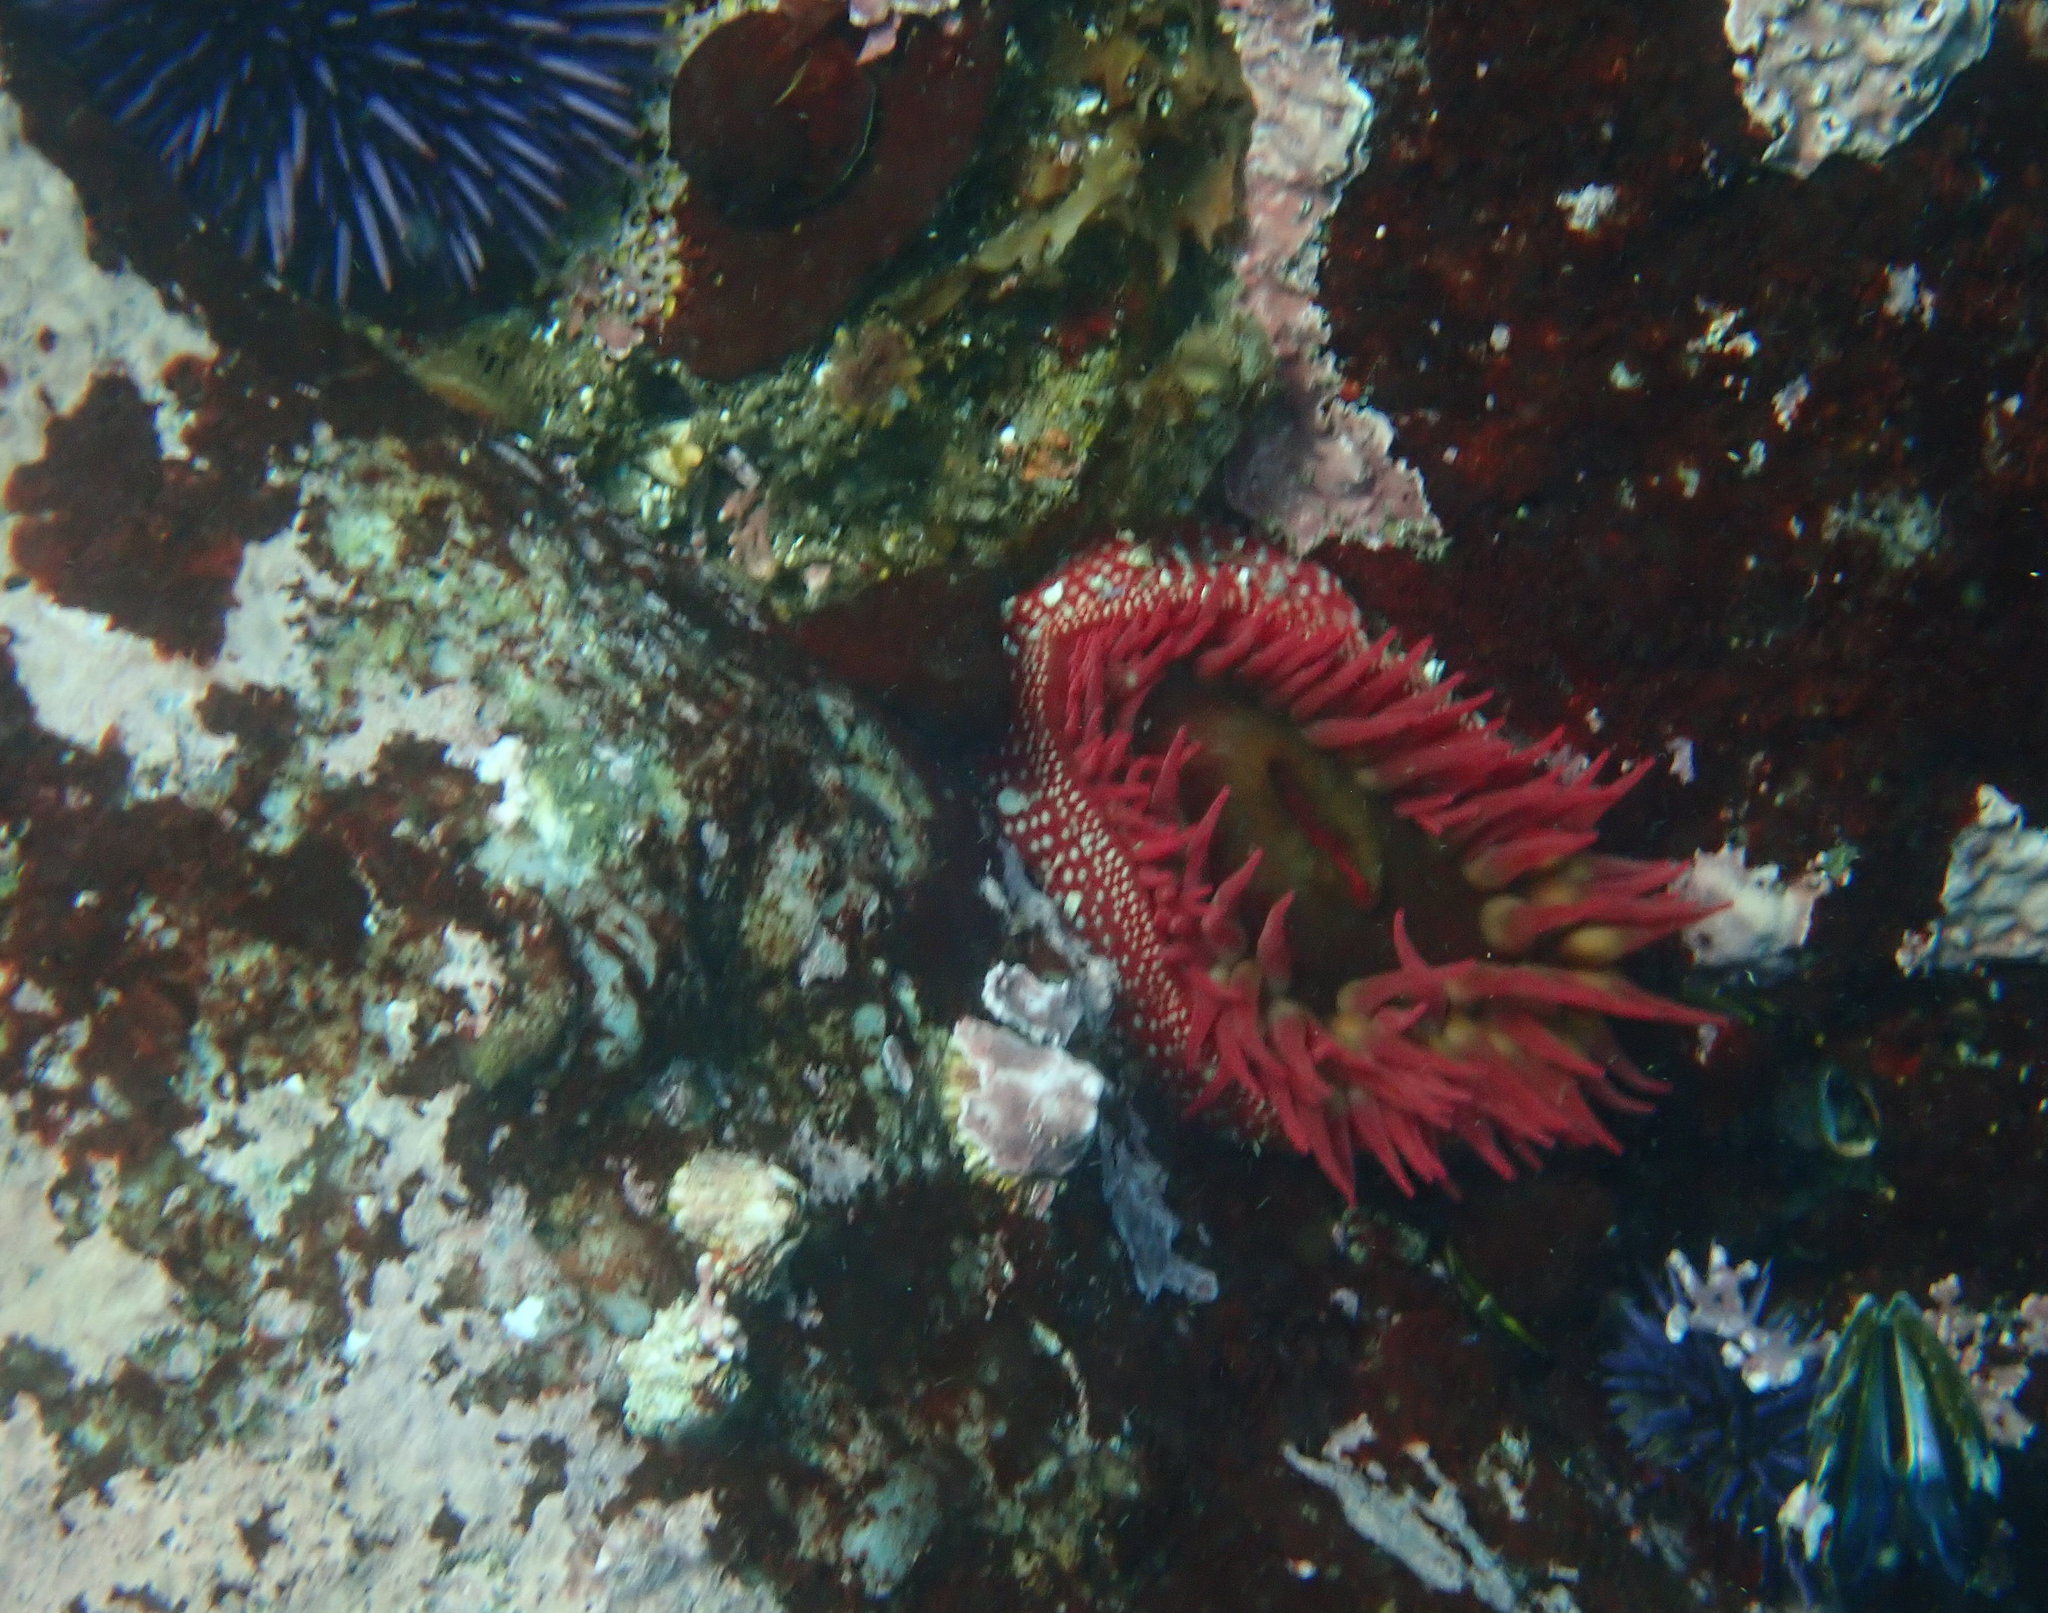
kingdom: Animalia
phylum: Cnidaria
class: Anthozoa
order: Actiniaria
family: Actiniidae
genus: Cribrinopsis
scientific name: Cribrinopsis albopunctata
